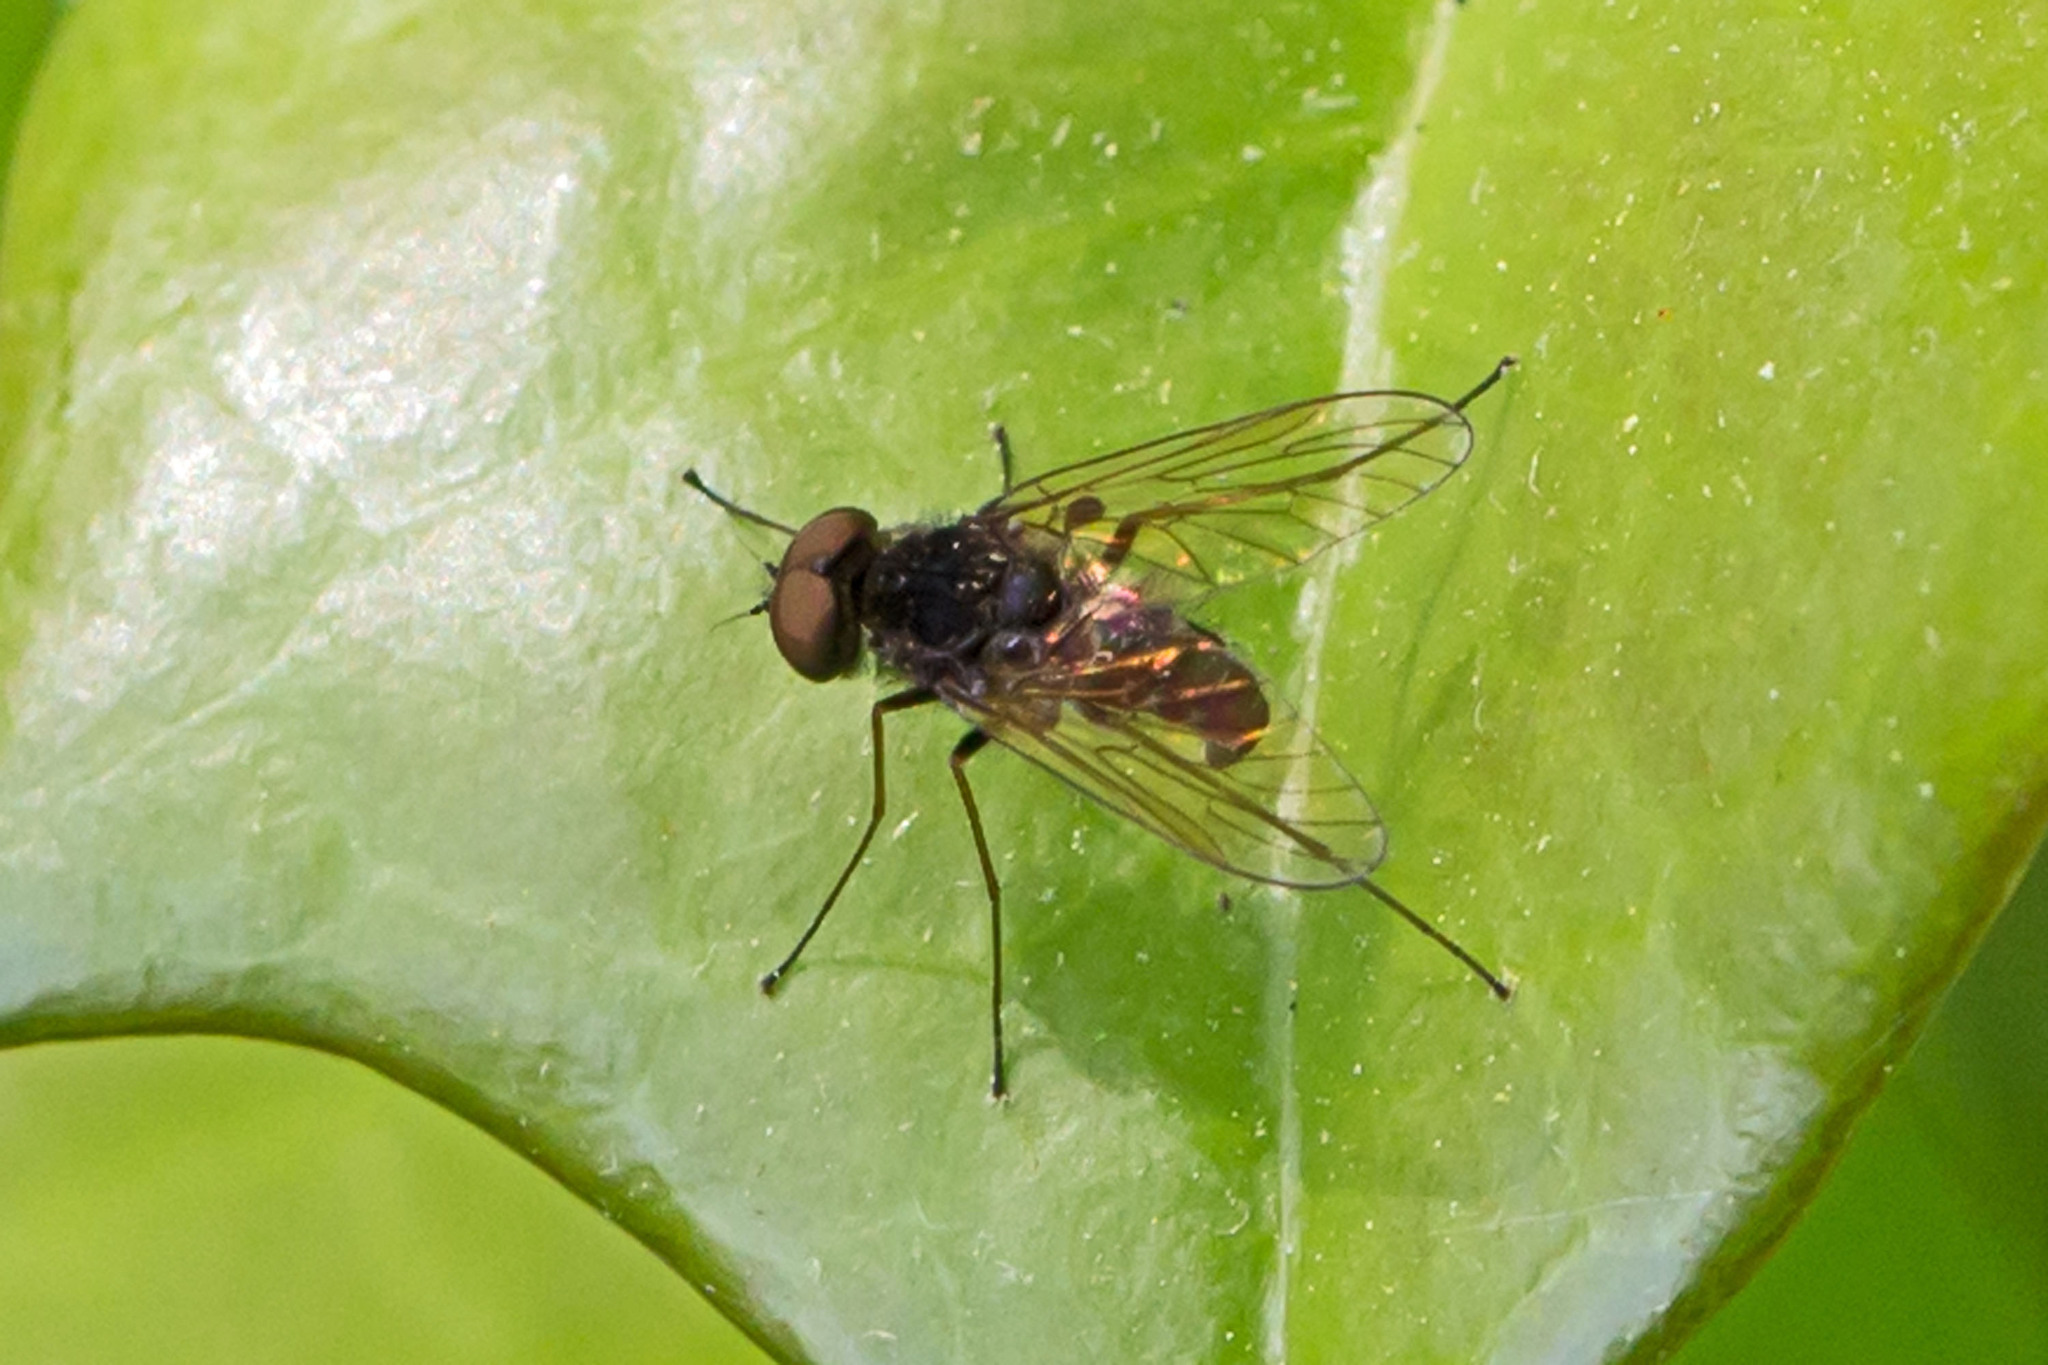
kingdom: Animalia
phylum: Arthropoda
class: Insecta
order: Diptera
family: Rhagionidae
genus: Chrysopilus
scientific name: Chrysopilus proximus
